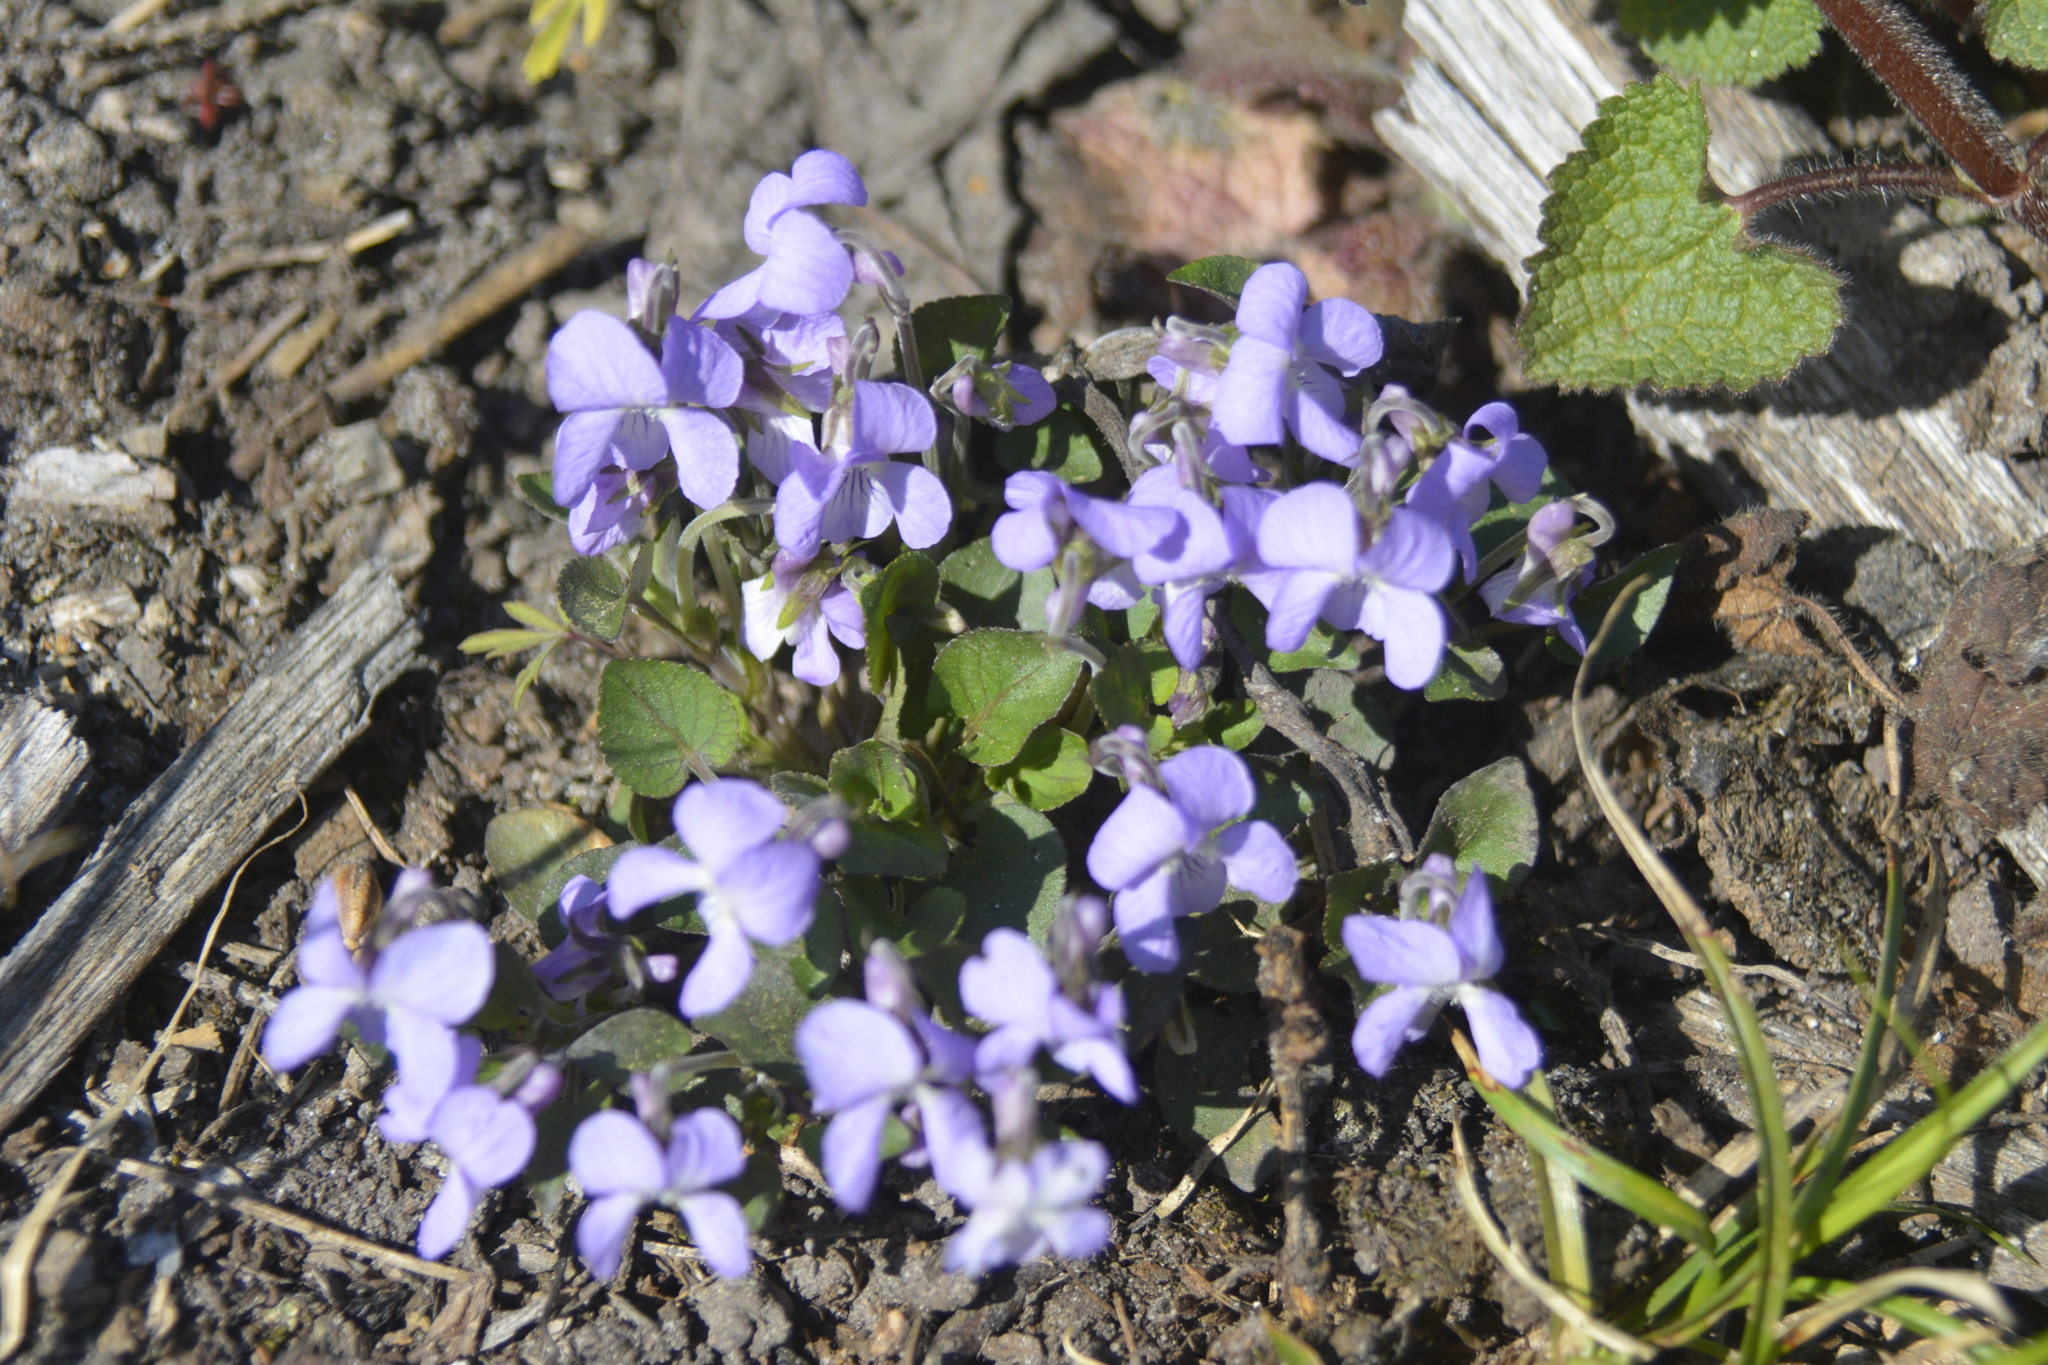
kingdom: Plantae
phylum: Tracheophyta
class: Magnoliopsida
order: Malpighiales
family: Violaceae
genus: Viola
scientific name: Viola rupestris
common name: Teesdale violet
